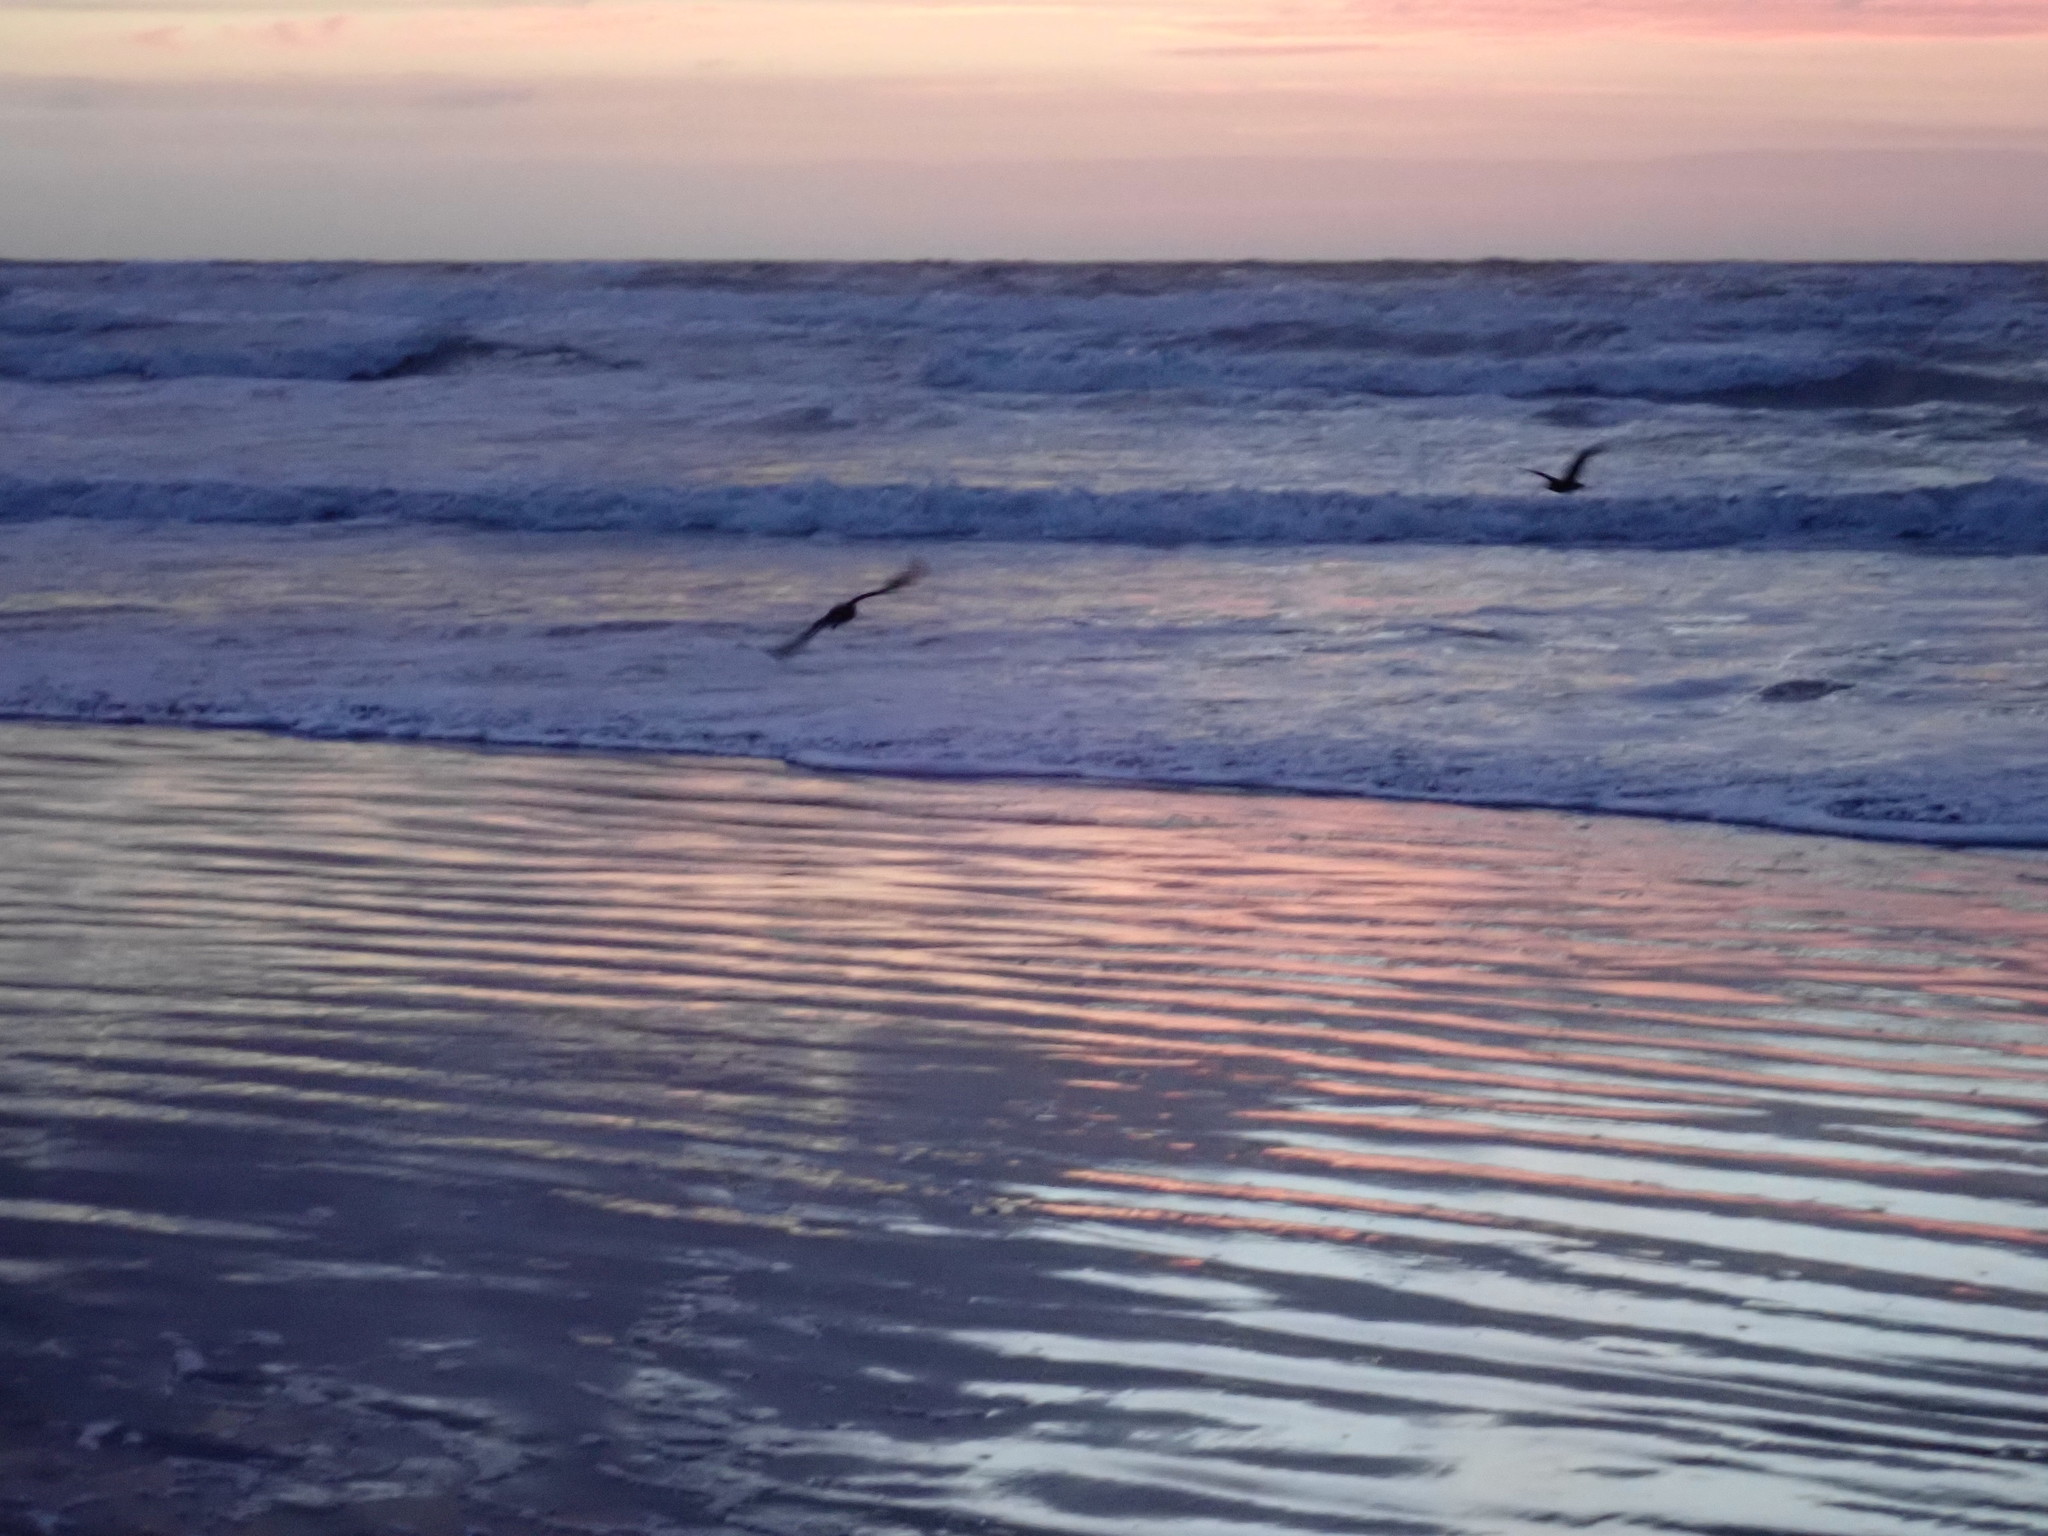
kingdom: Animalia
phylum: Chordata
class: Aves
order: Charadriiformes
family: Haematopodidae
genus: Haematopus
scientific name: Haematopus unicolor
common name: Variable oystercatcher
